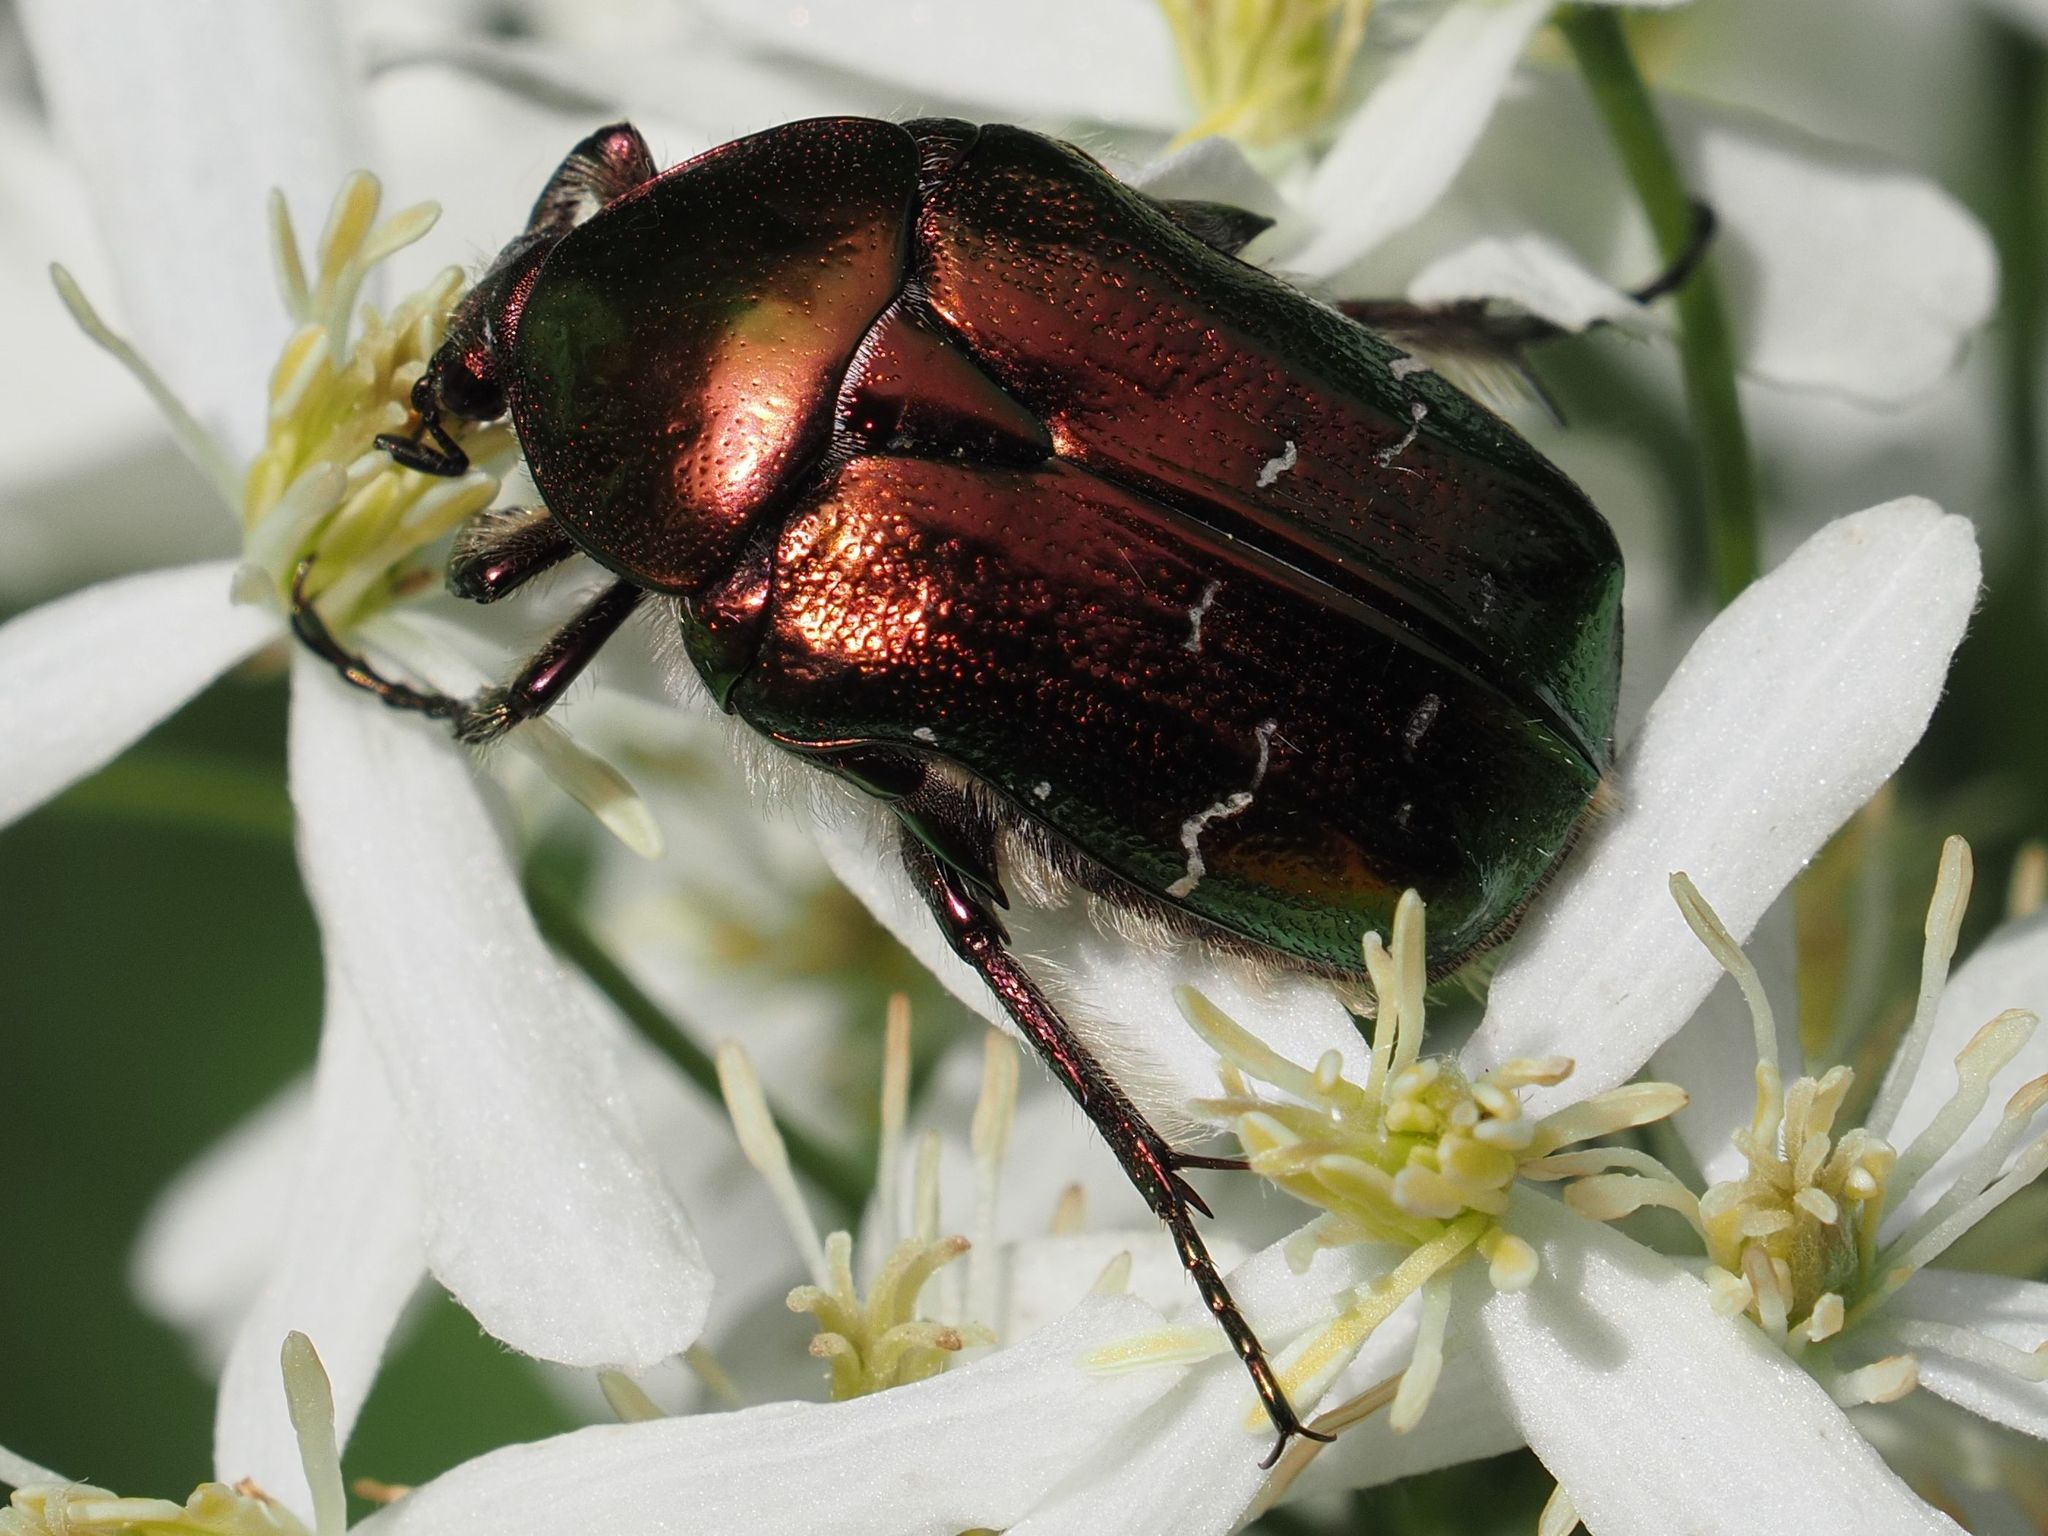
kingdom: Animalia
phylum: Arthropoda
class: Insecta
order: Coleoptera
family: Scarabaeidae
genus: Cetonia
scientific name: Cetonia aurata
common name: Rose chafer
